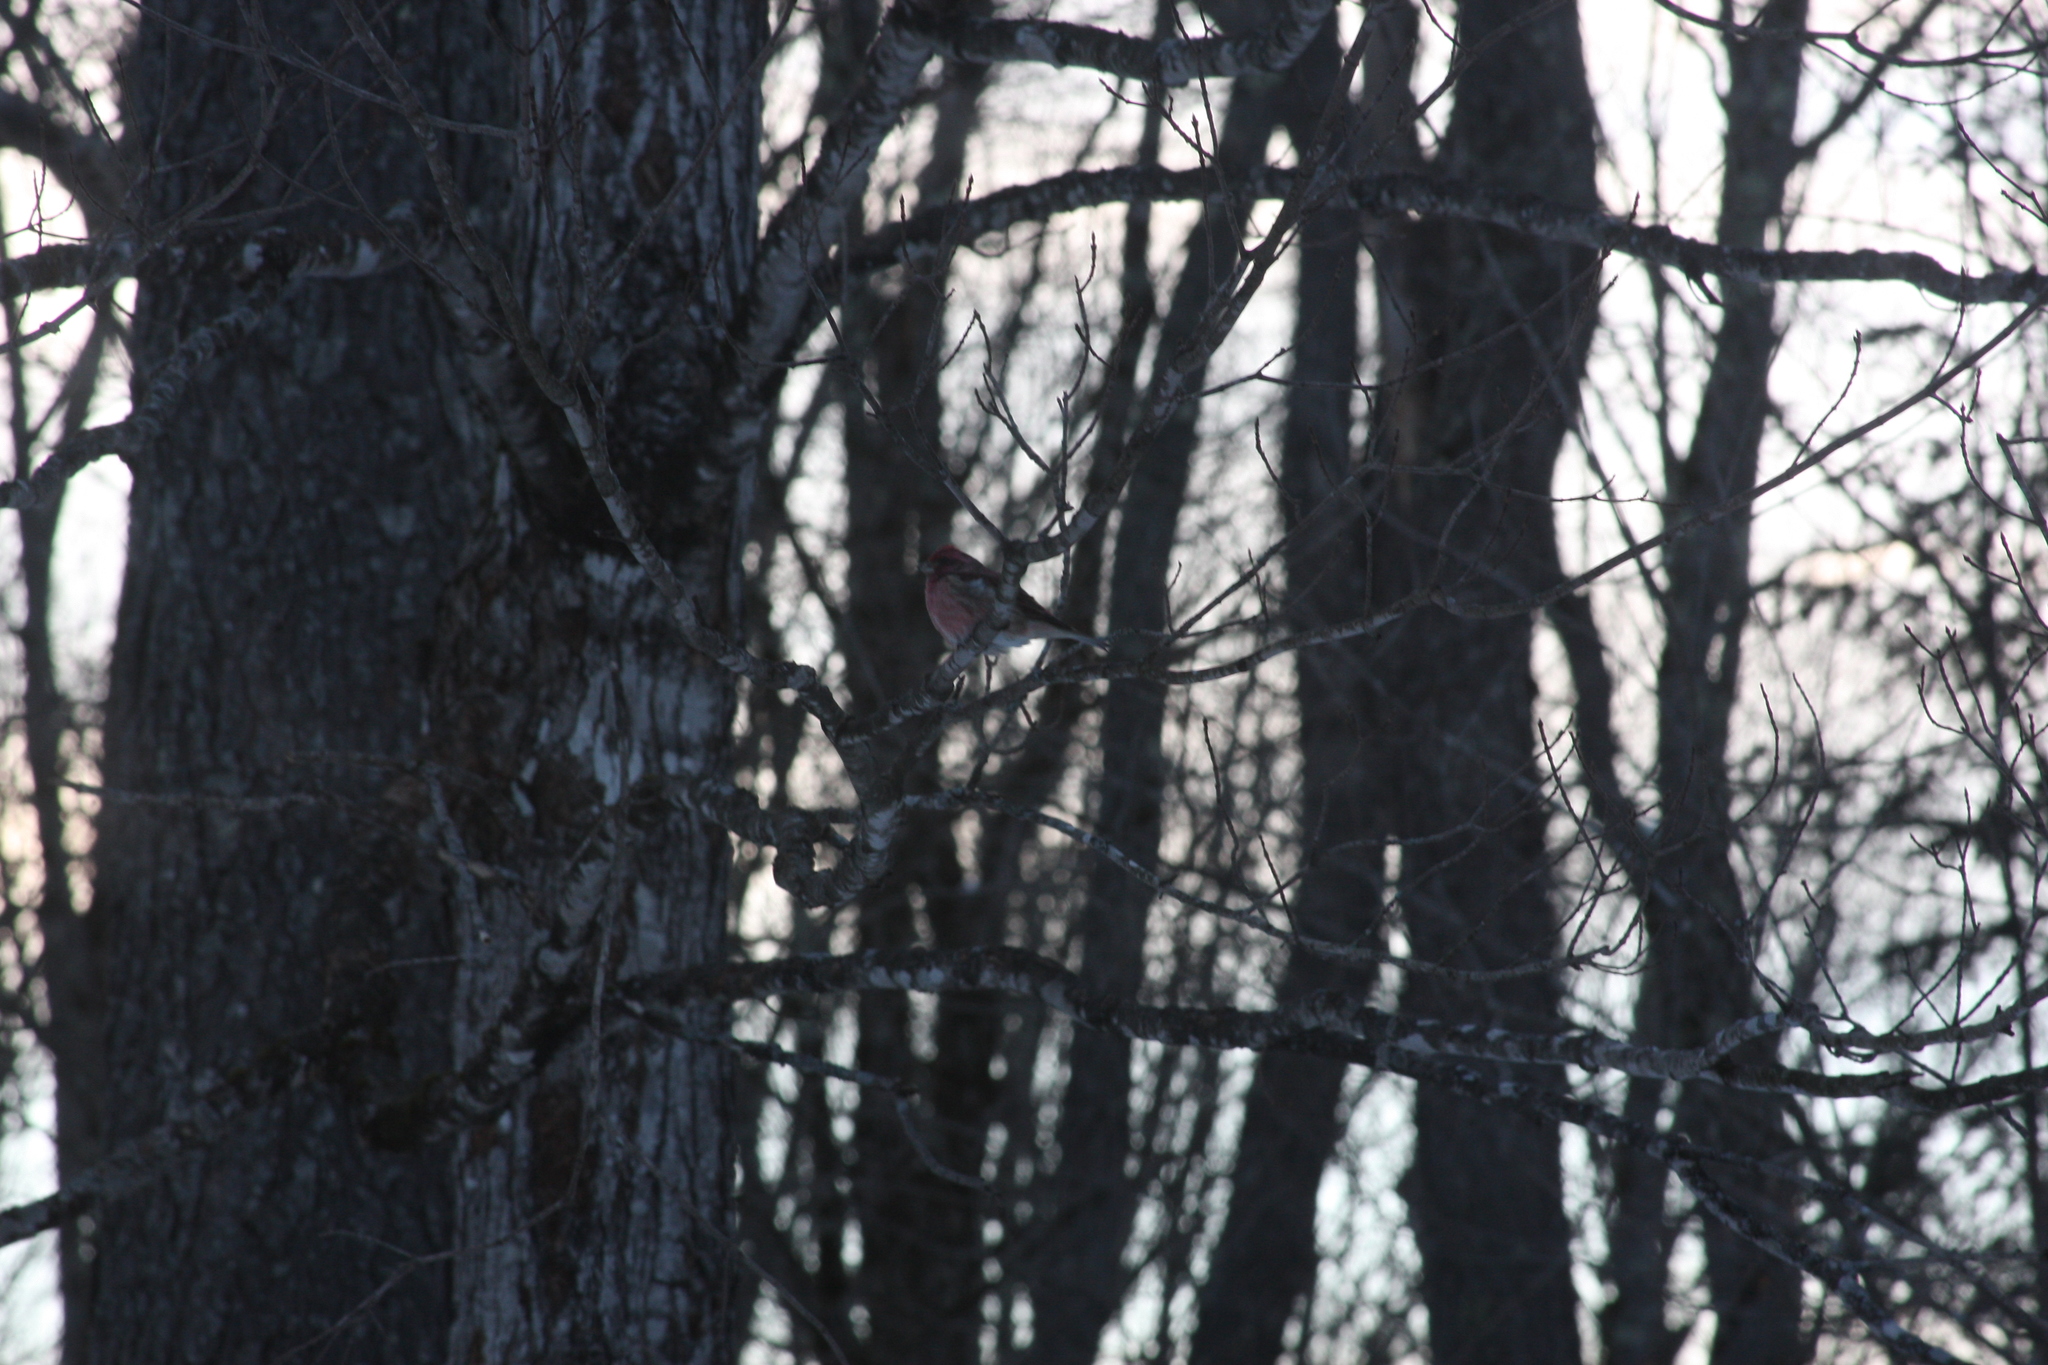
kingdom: Animalia
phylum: Chordata
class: Aves
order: Passeriformes
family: Fringillidae
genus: Haemorhous
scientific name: Haemorhous purpureus
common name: Purple finch
